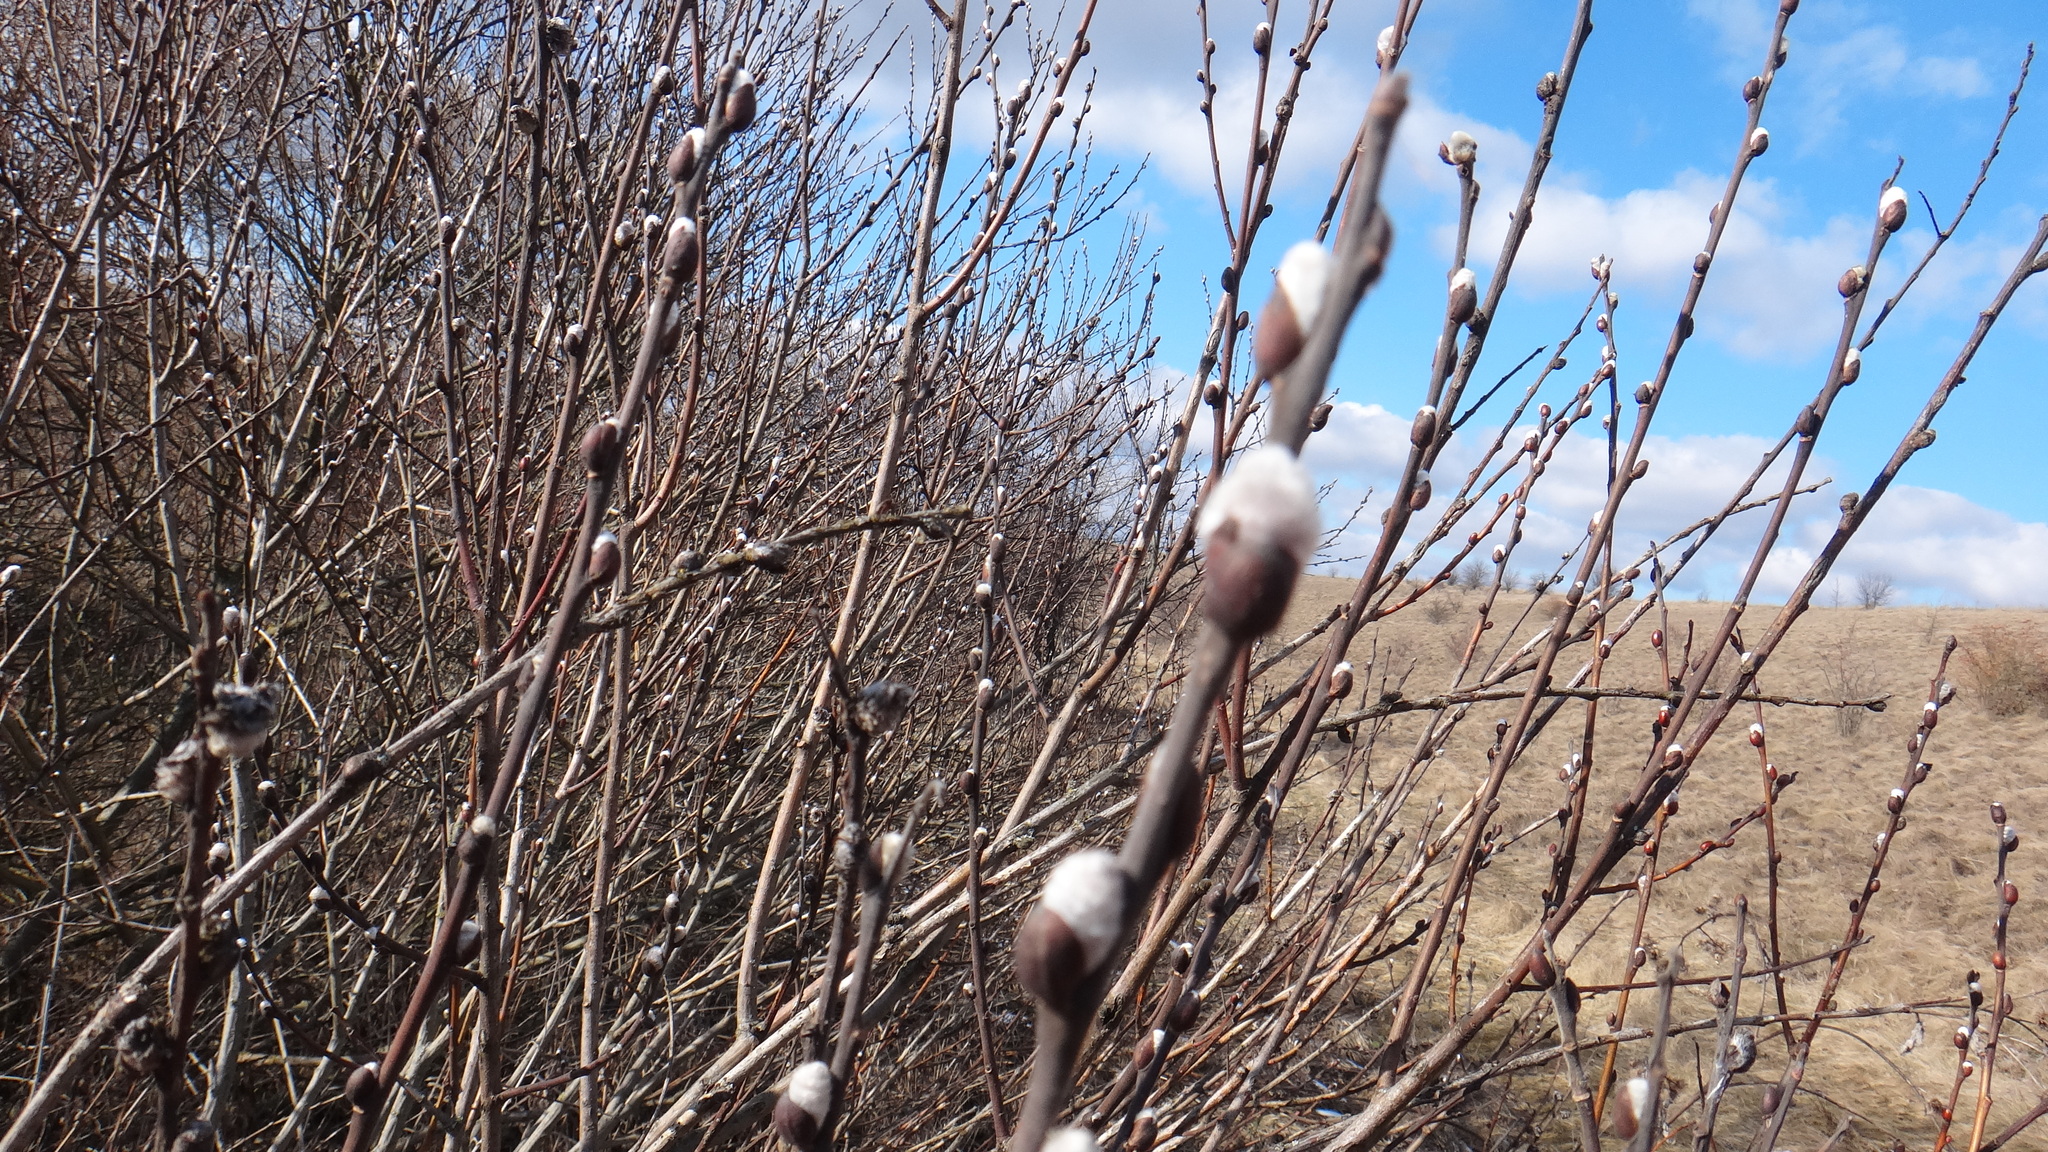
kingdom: Plantae
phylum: Tracheophyta
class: Magnoliopsida
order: Malpighiales
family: Salicaceae
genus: Salix
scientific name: Salix cinerea
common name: Common sallow
